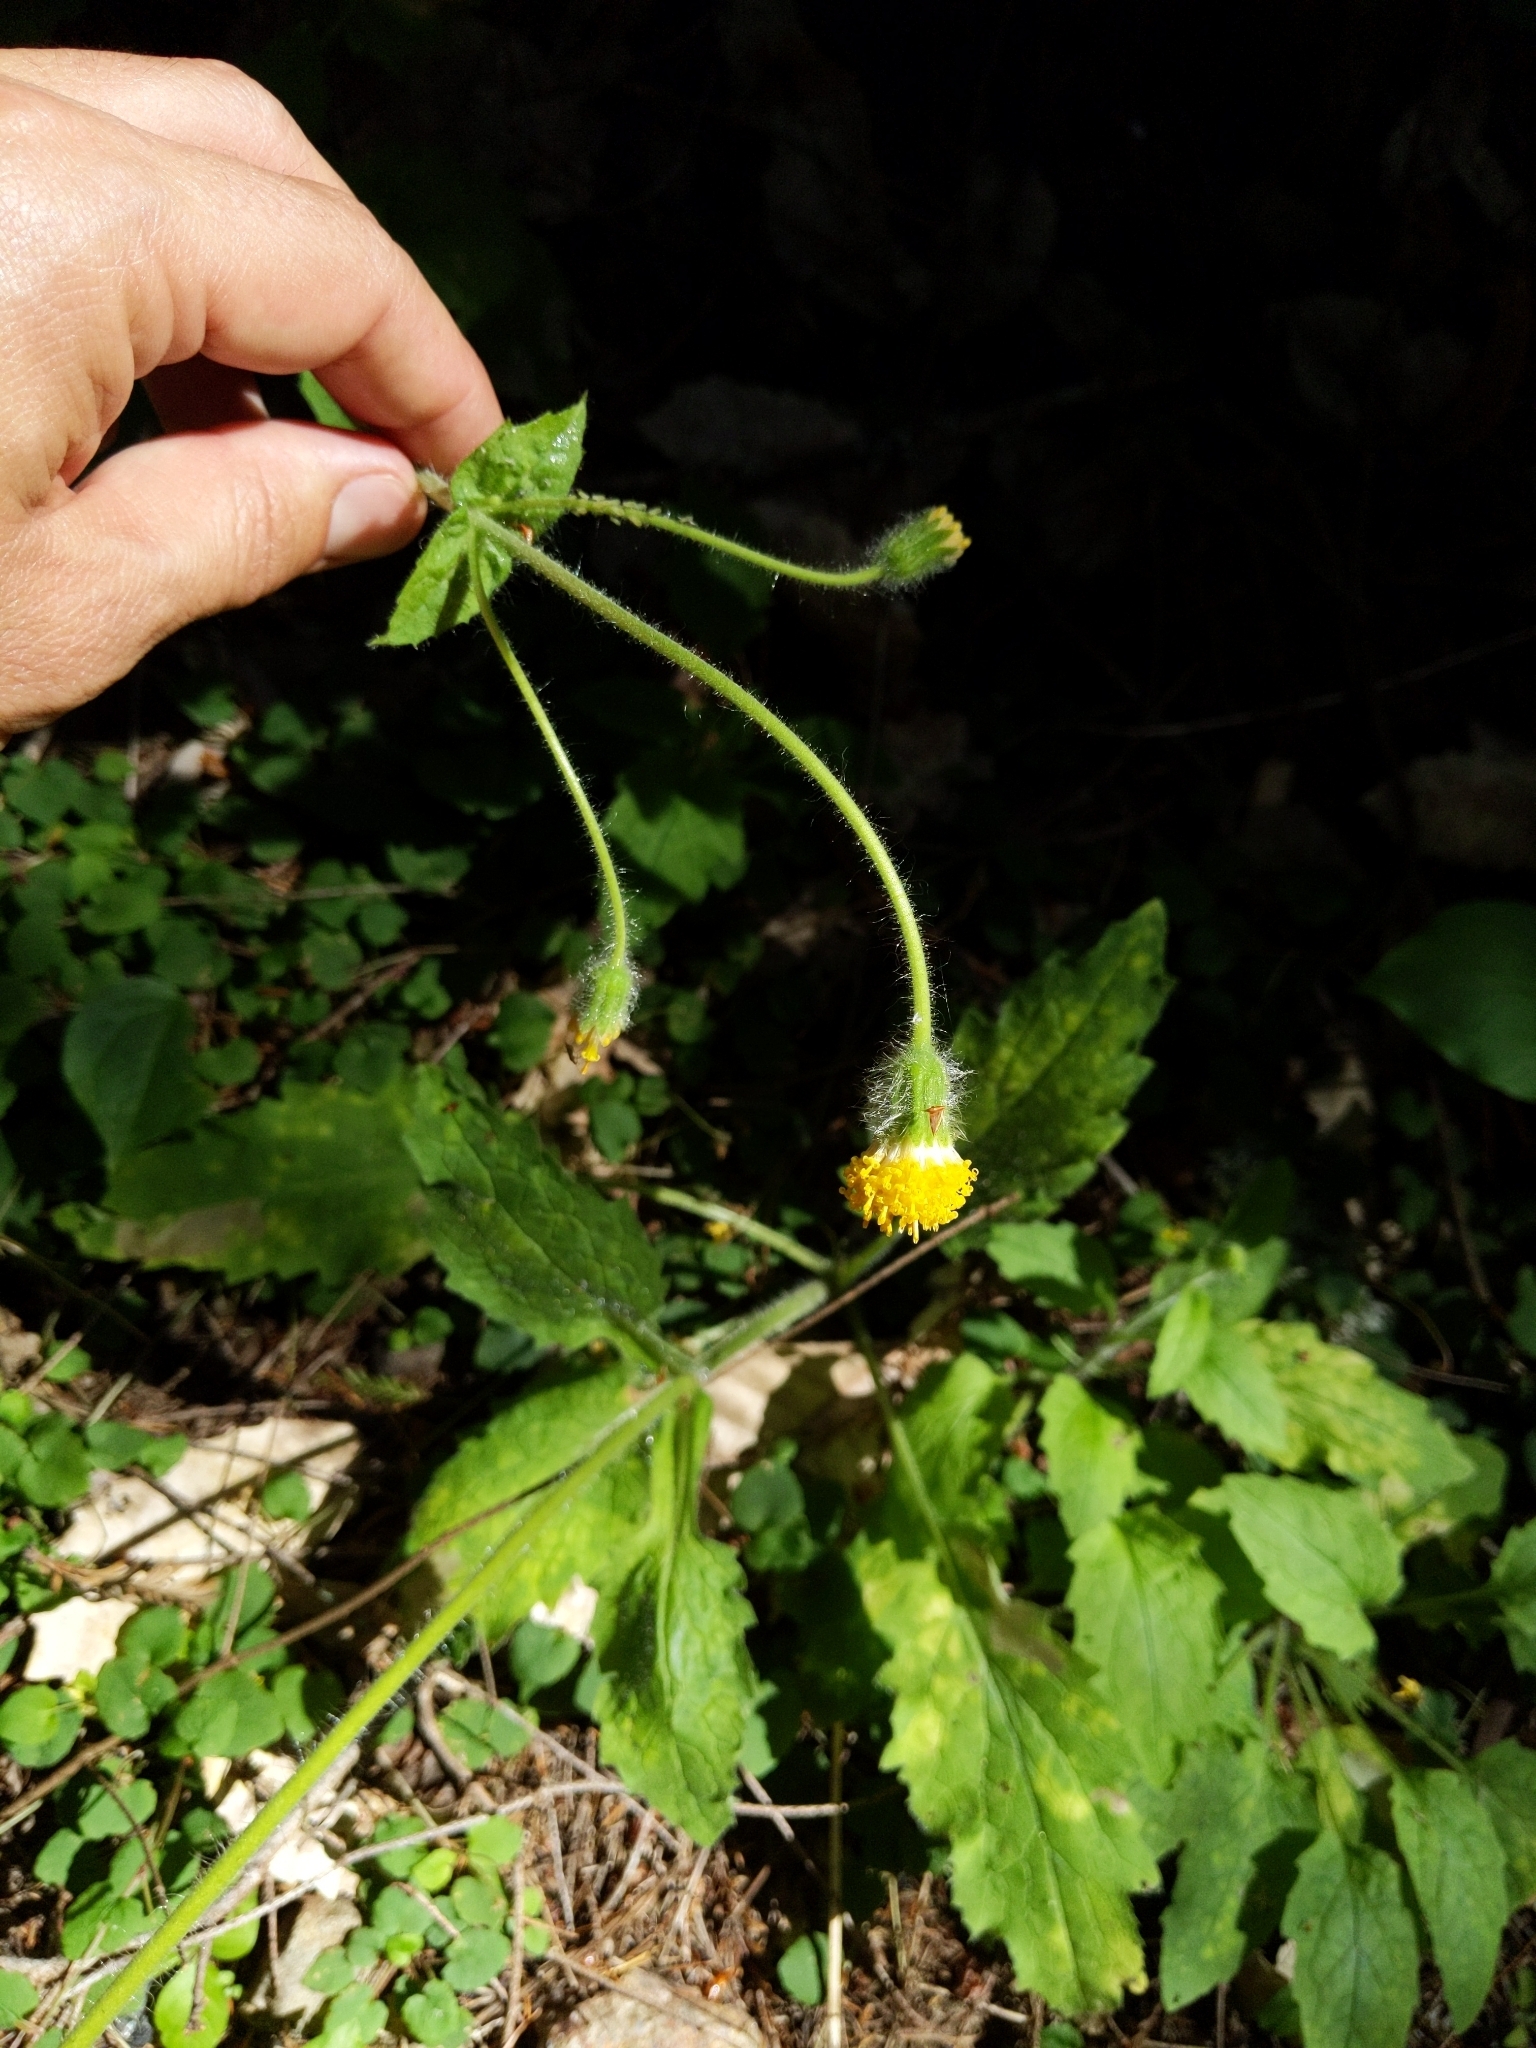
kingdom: Plantae
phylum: Tracheophyta
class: Magnoliopsida
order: Asterales
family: Asteraceae
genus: Arnica
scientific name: Arnica discoidea
